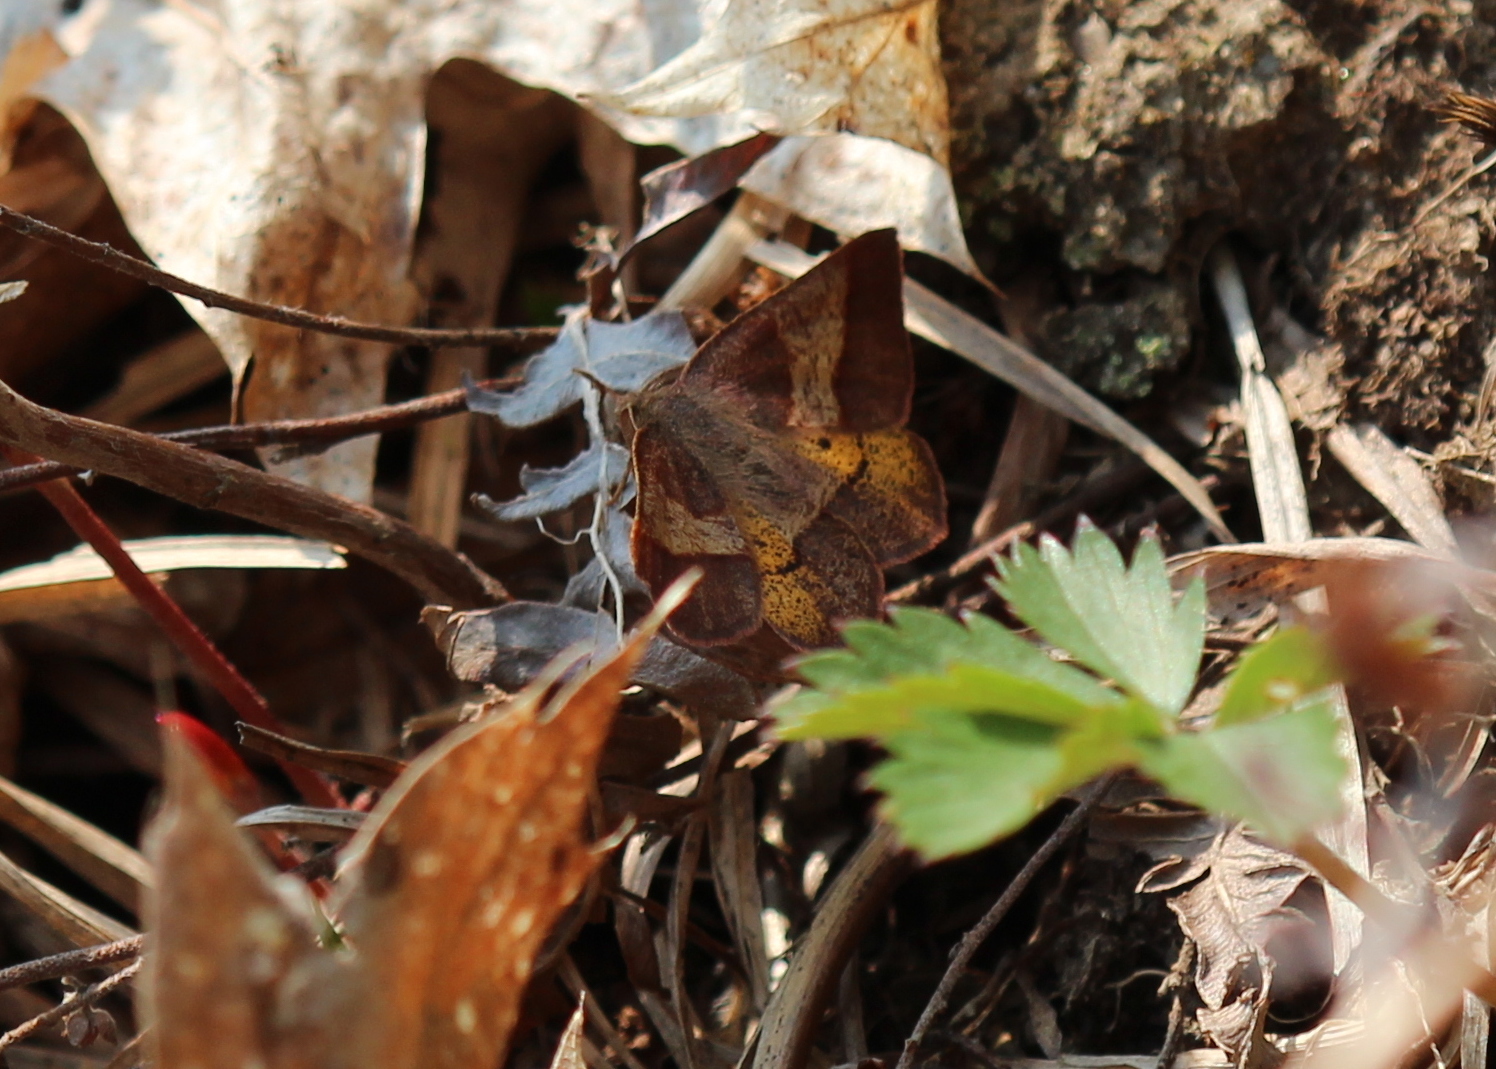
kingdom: Animalia
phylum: Arthropoda
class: Insecta
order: Lepidoptera
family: Geometridae
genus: Metarranthis
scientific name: Metarranthis obfirmaria
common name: Yellow-washed metarranthis
